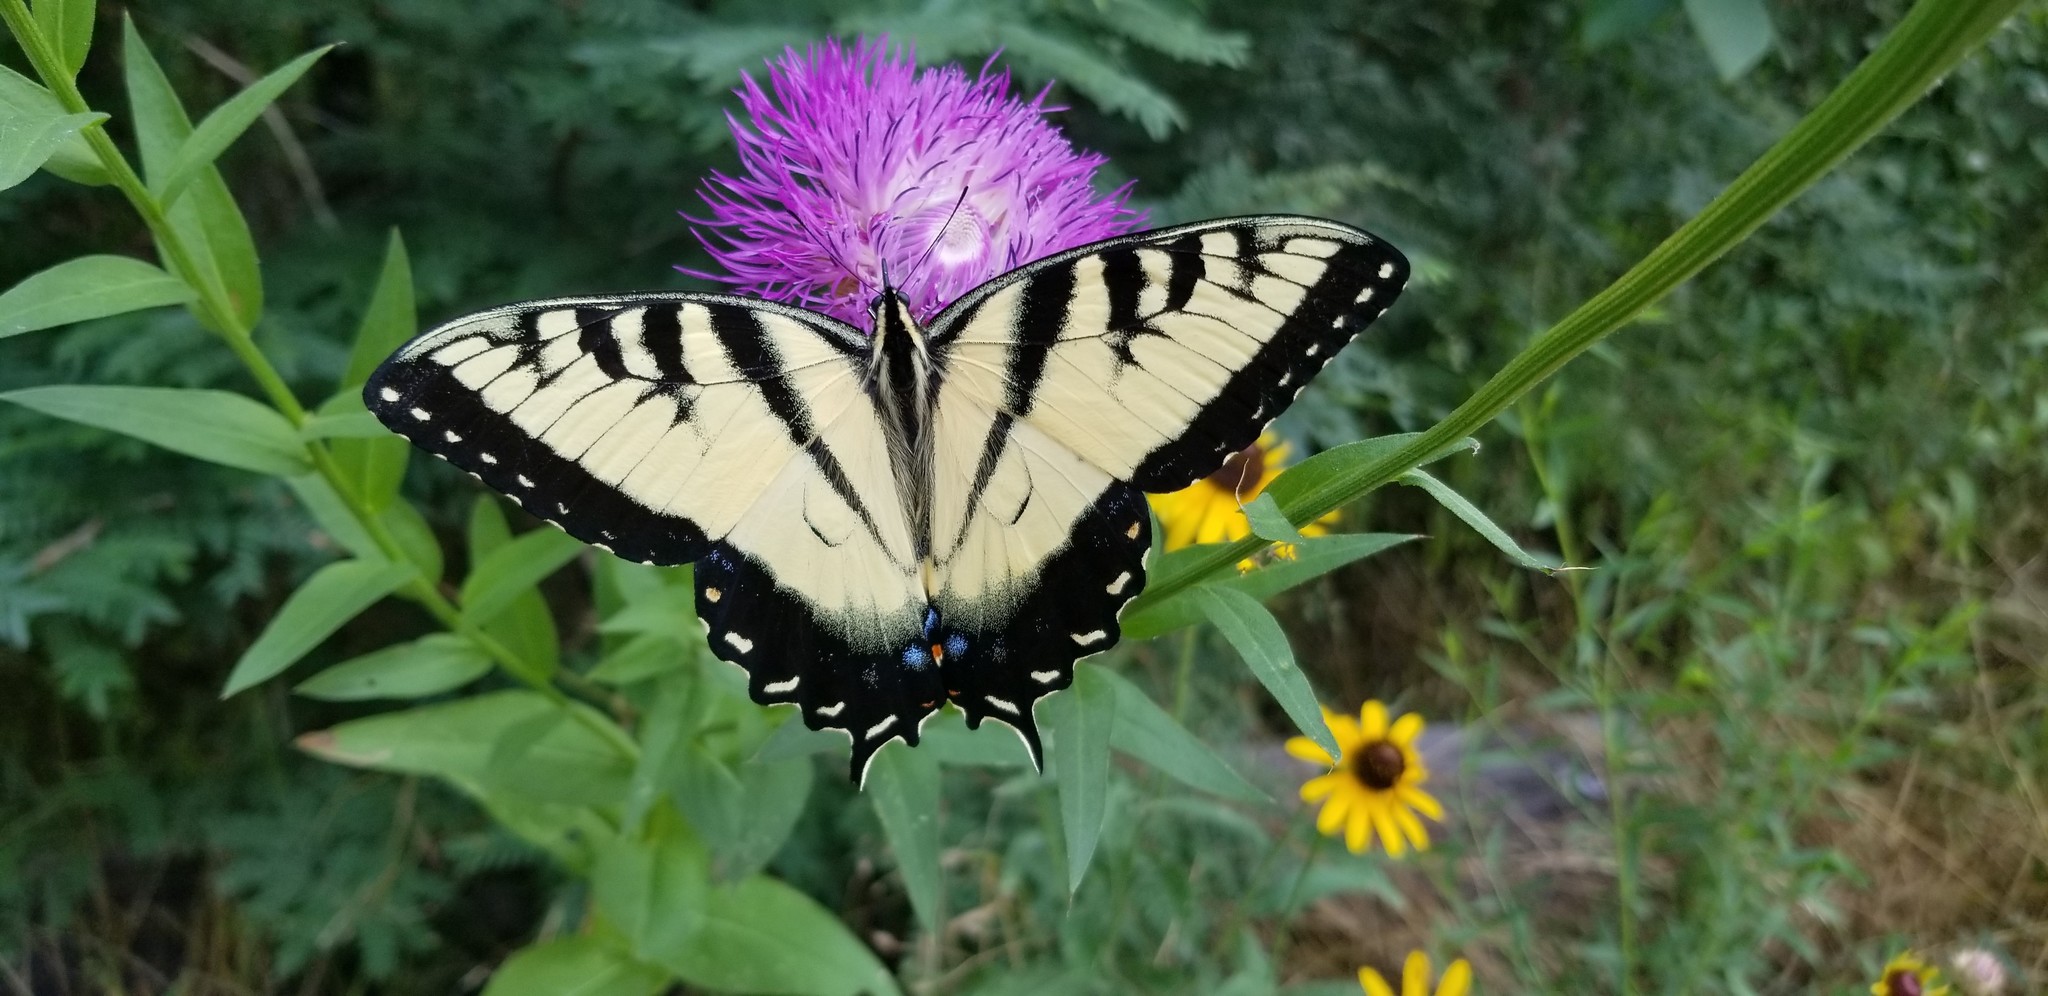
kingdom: Animalia
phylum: Arthropoda
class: Insecta
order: Lepidoptera
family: Papilionidae
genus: Papilio
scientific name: Papilio glaucus
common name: Tiger swallowtail
